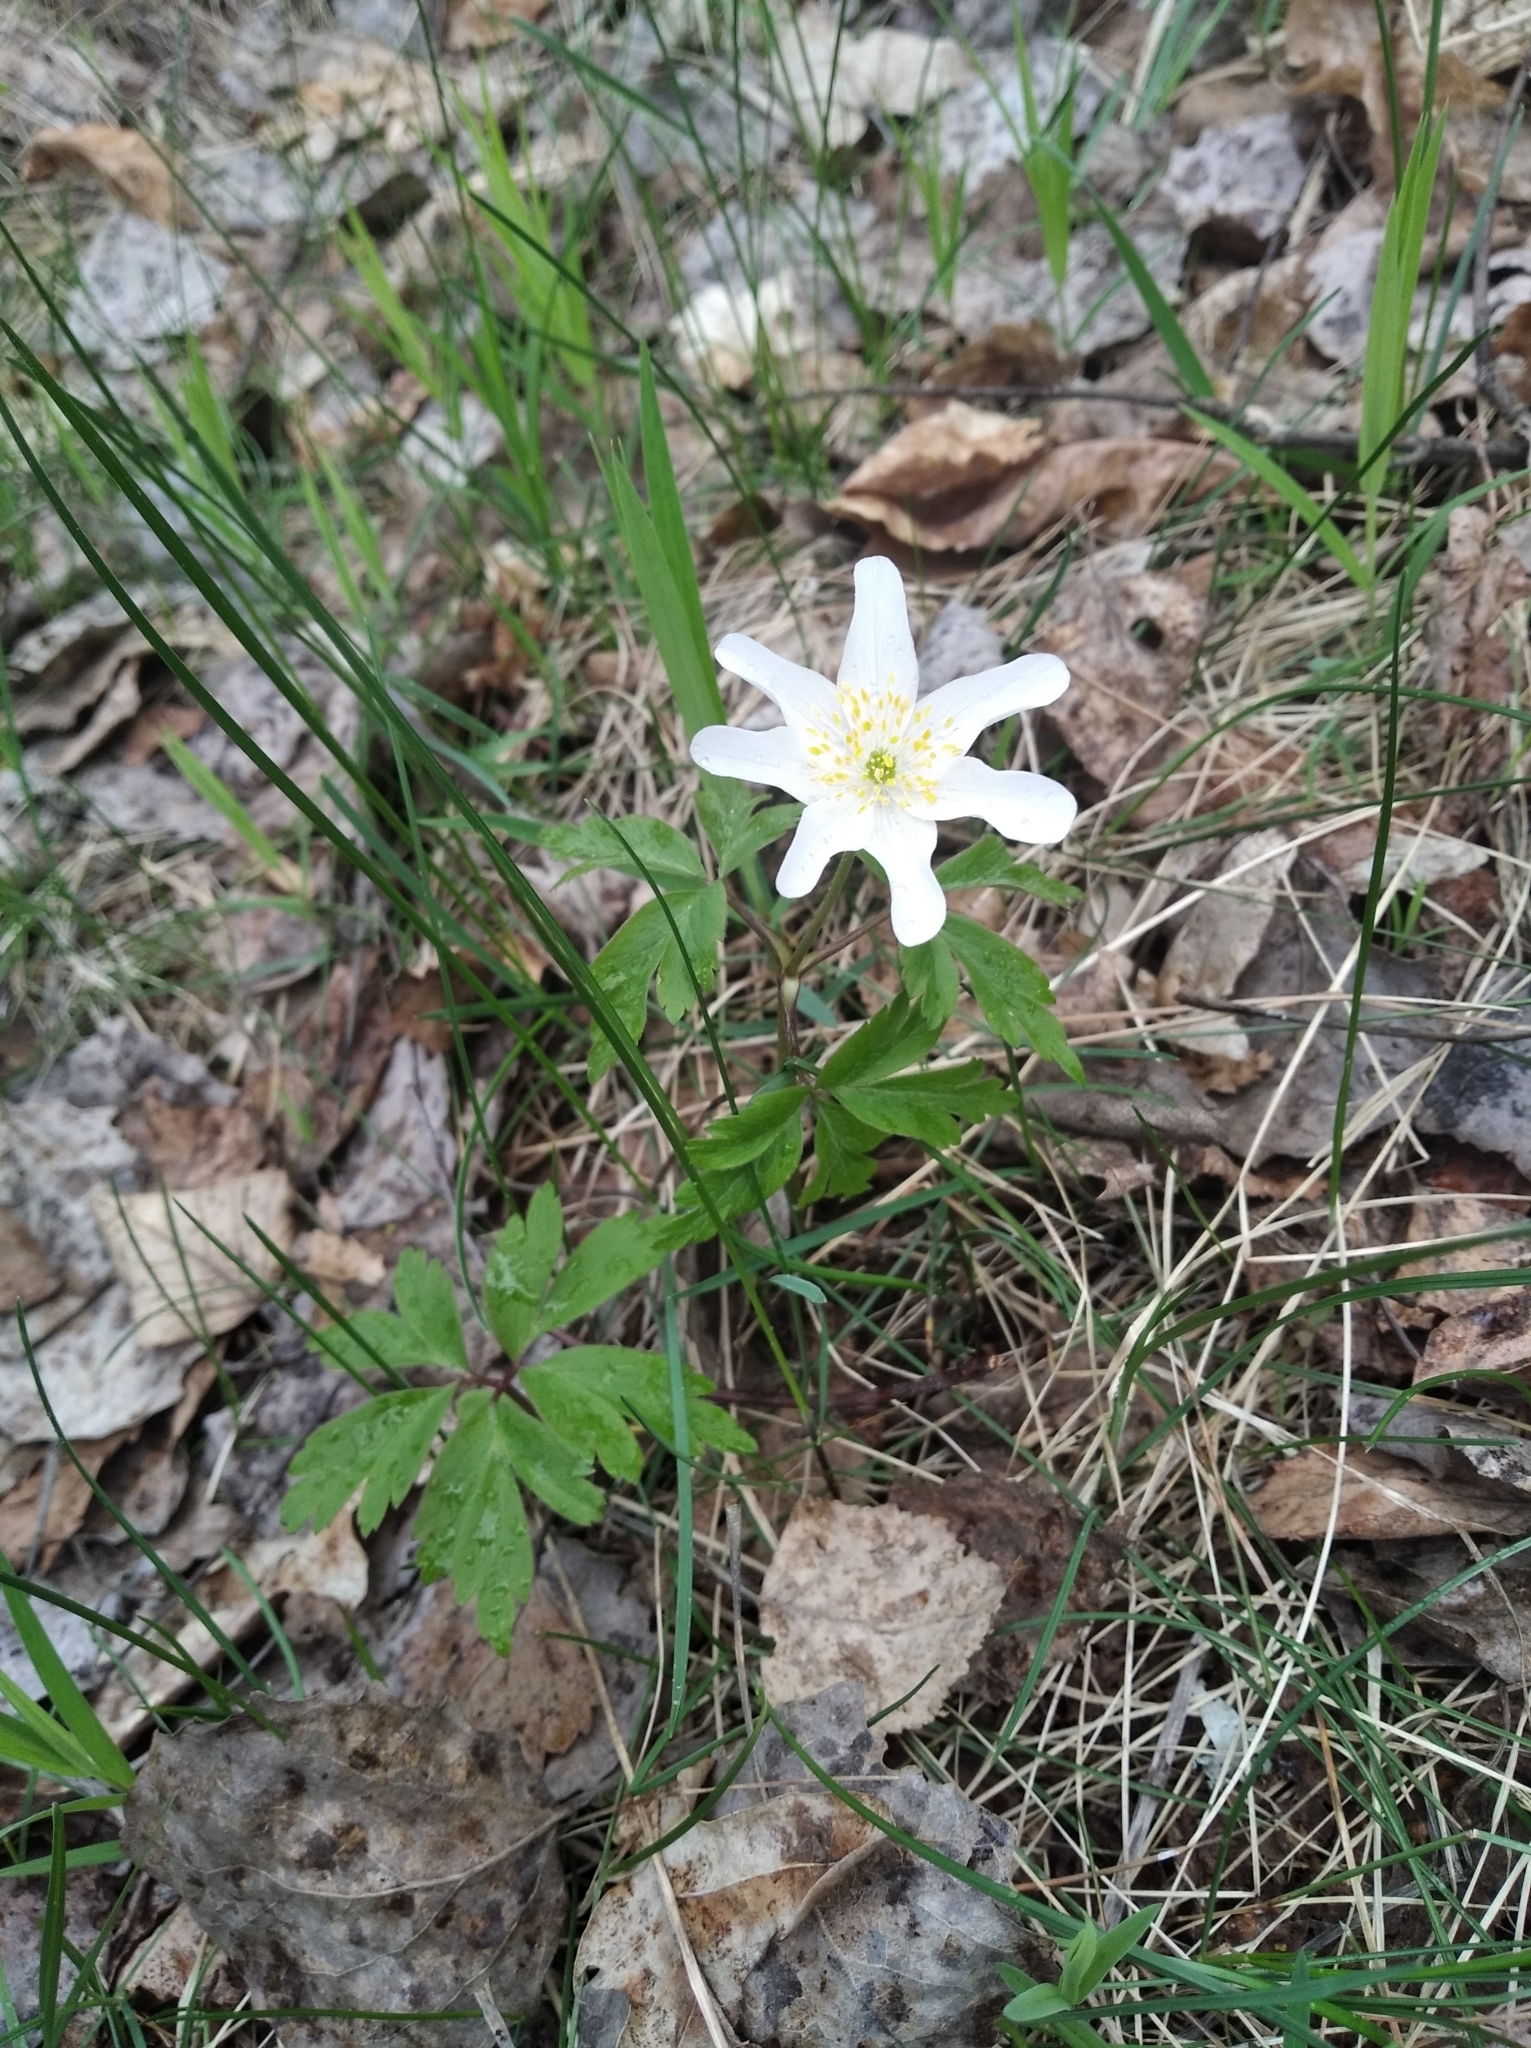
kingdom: Plantae
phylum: Tracheophyta
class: Magnoliopsida
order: Ranunculales
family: Ranunculaceae
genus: Anemone
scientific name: Anemone nemorosa
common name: Wood anemone
